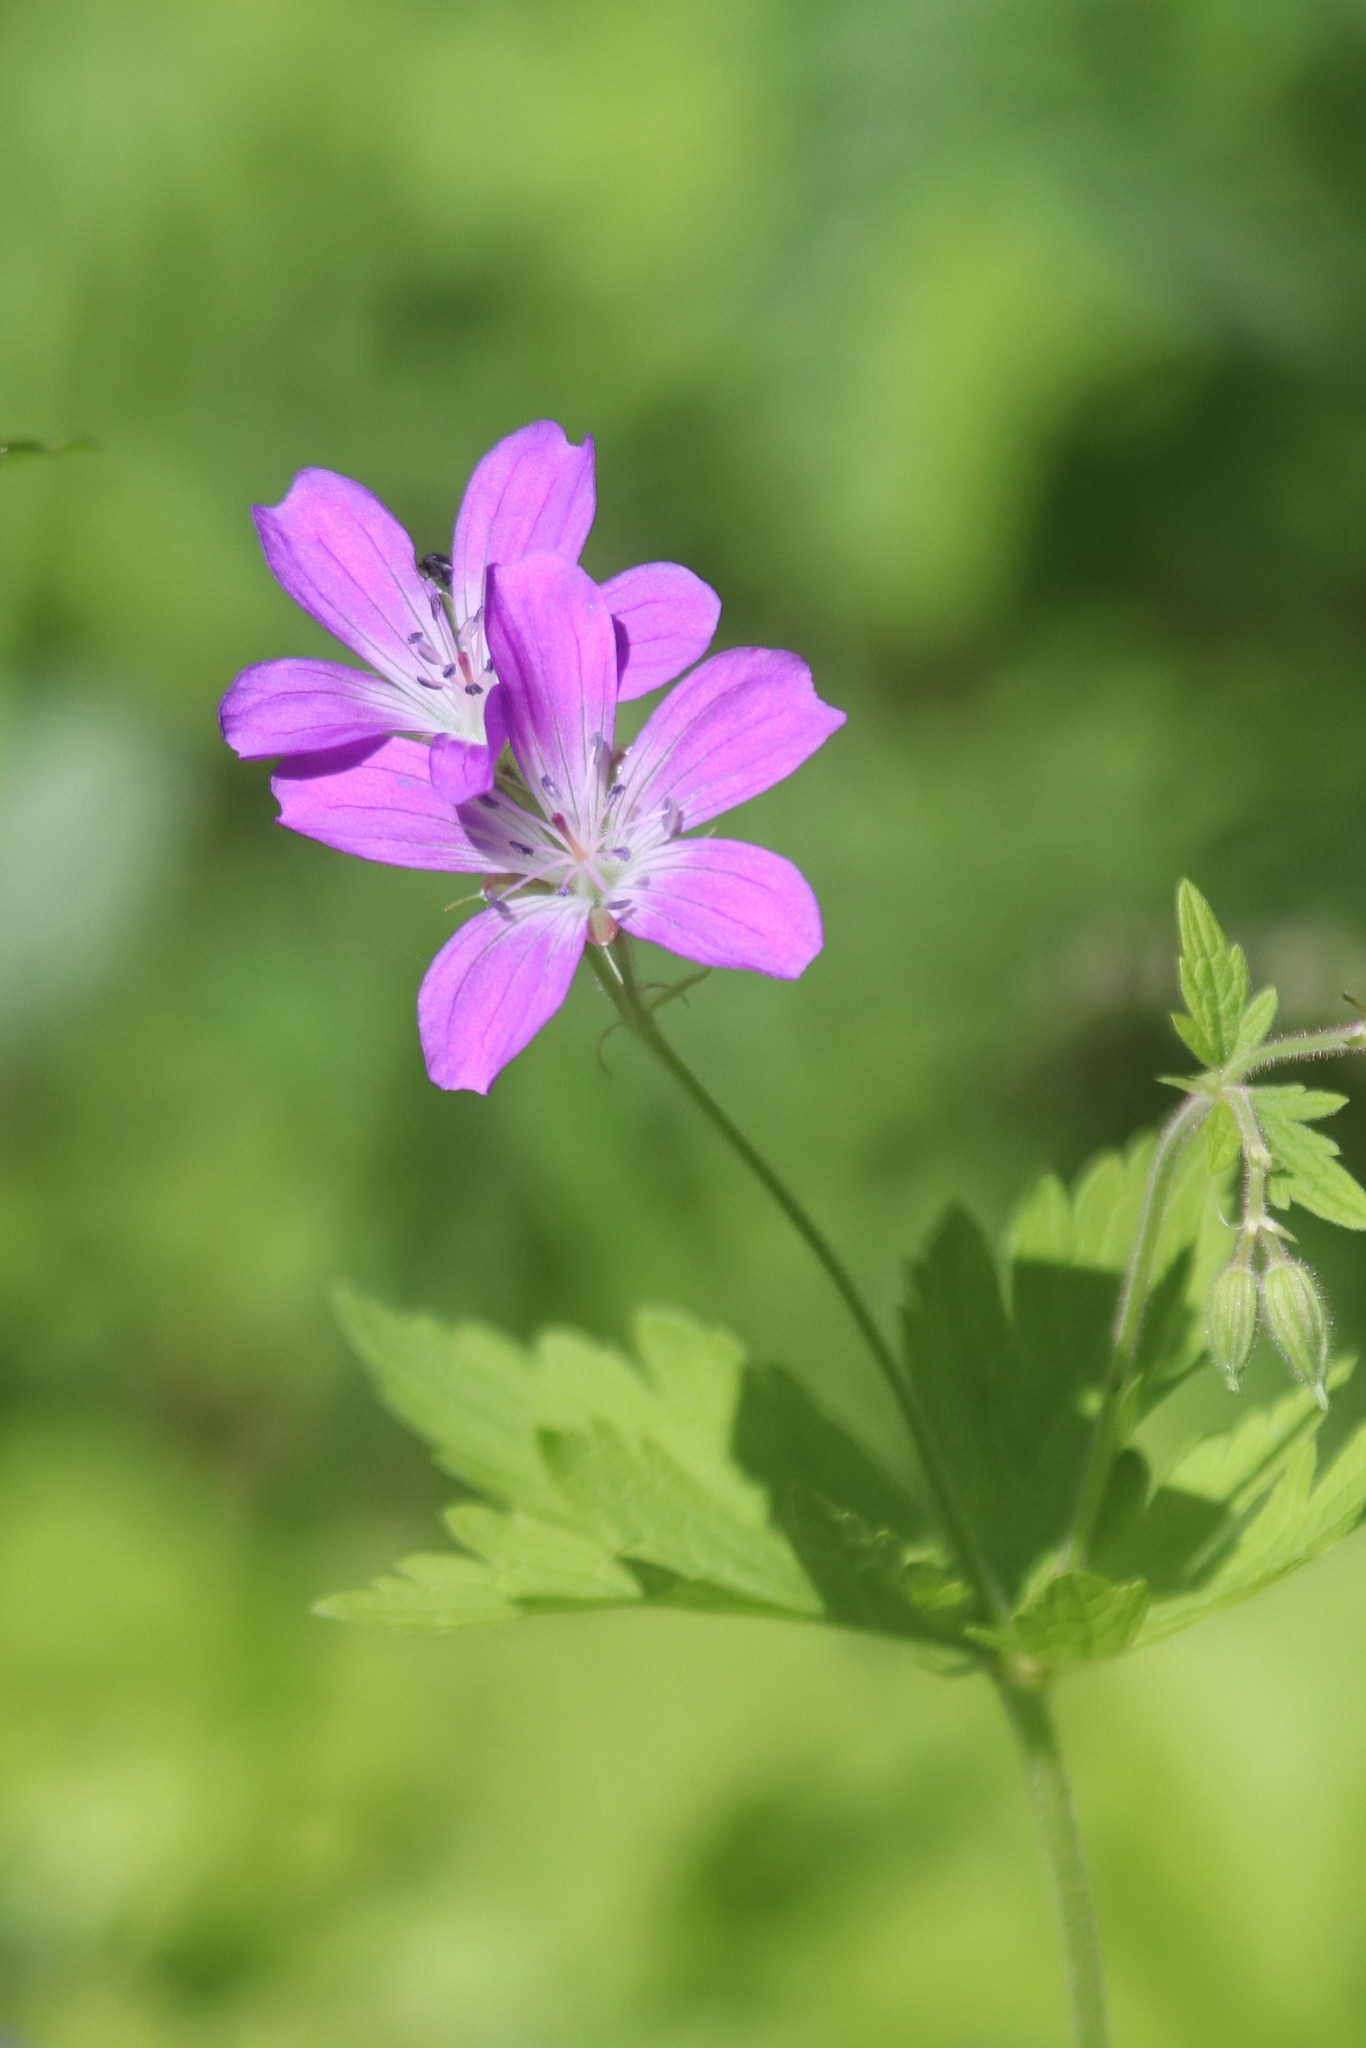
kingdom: Plantae
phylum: Tracheophyta
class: Magnoliopsida
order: Geraniales
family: Geraniaceae
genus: Geranium
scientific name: Geranium sylvaticum
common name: Wood crane's-bill
